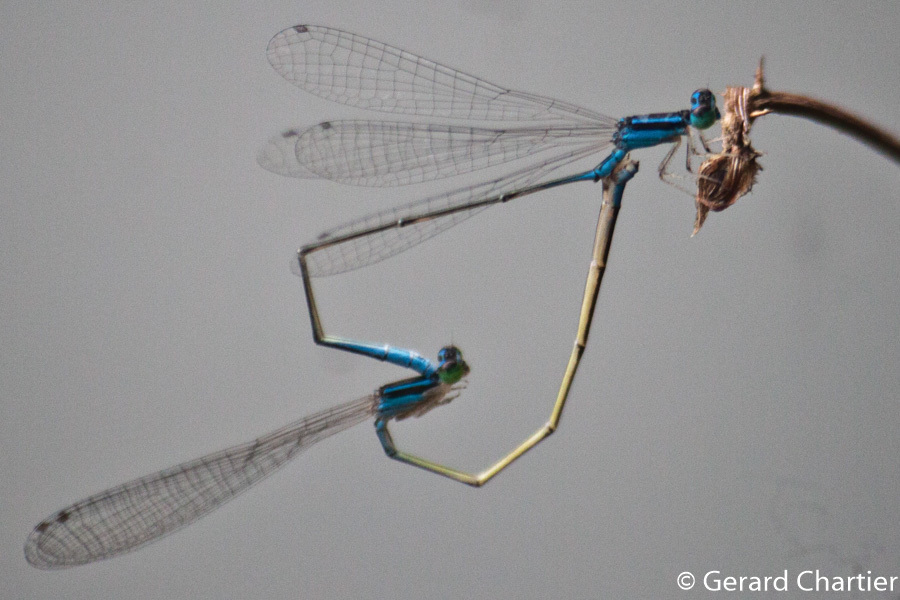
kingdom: Animalia
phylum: Arthropoda
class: Insecta
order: Odonata
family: Coenagrionidae
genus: Aciagrion
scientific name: Aciagrion hisopa
